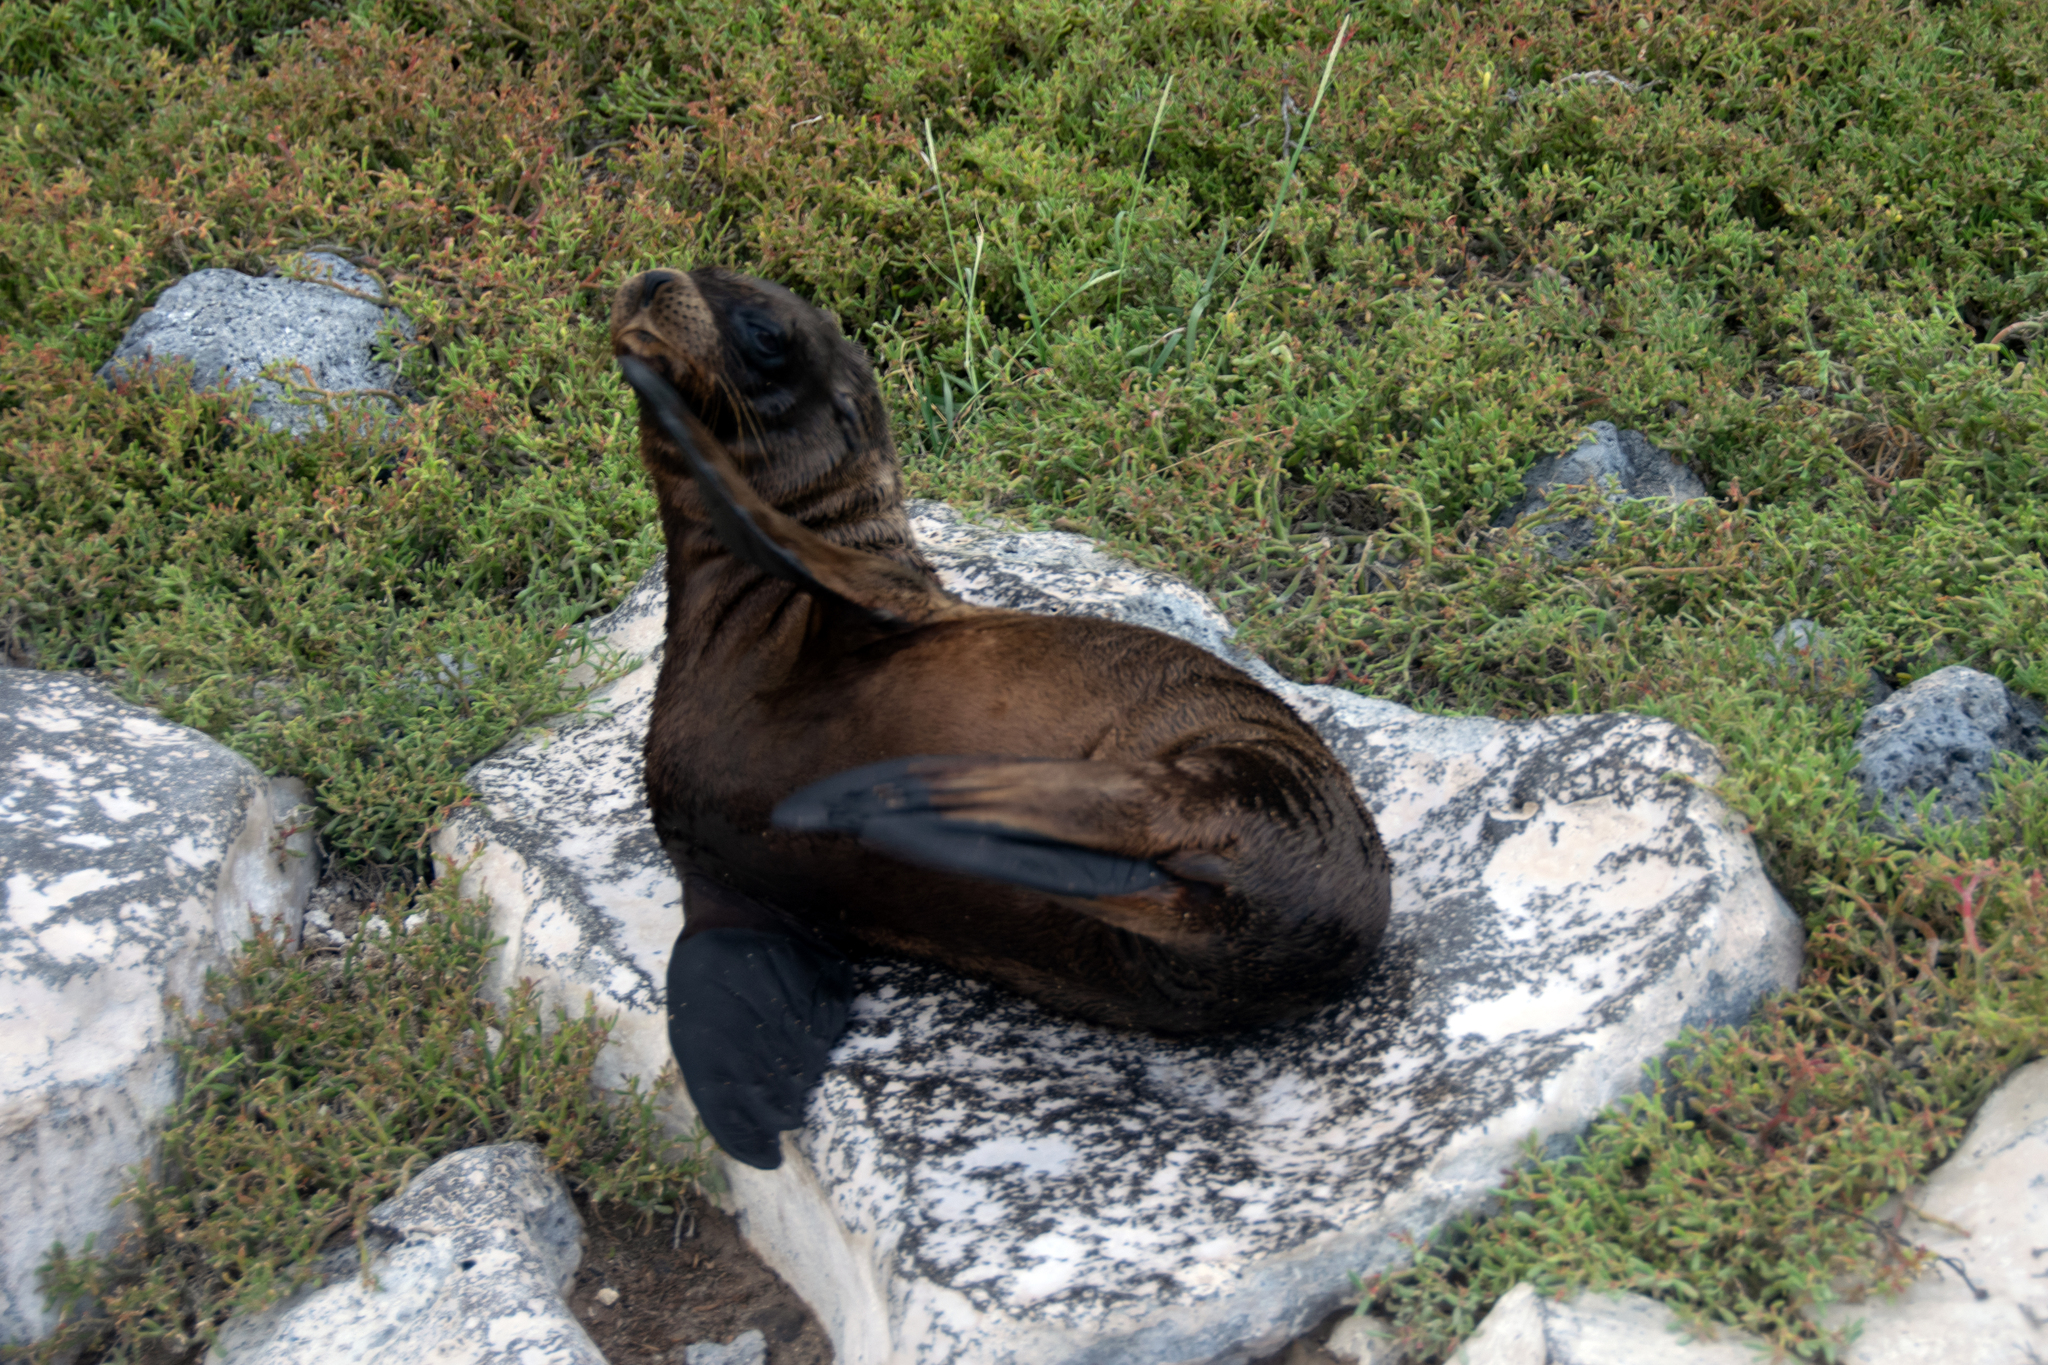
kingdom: Animalia
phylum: Chordata
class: Mammalia
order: Carnivora
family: Otariidae
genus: Zalophus
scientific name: Zalophus wollebaeki
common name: Galapagos sea lion
